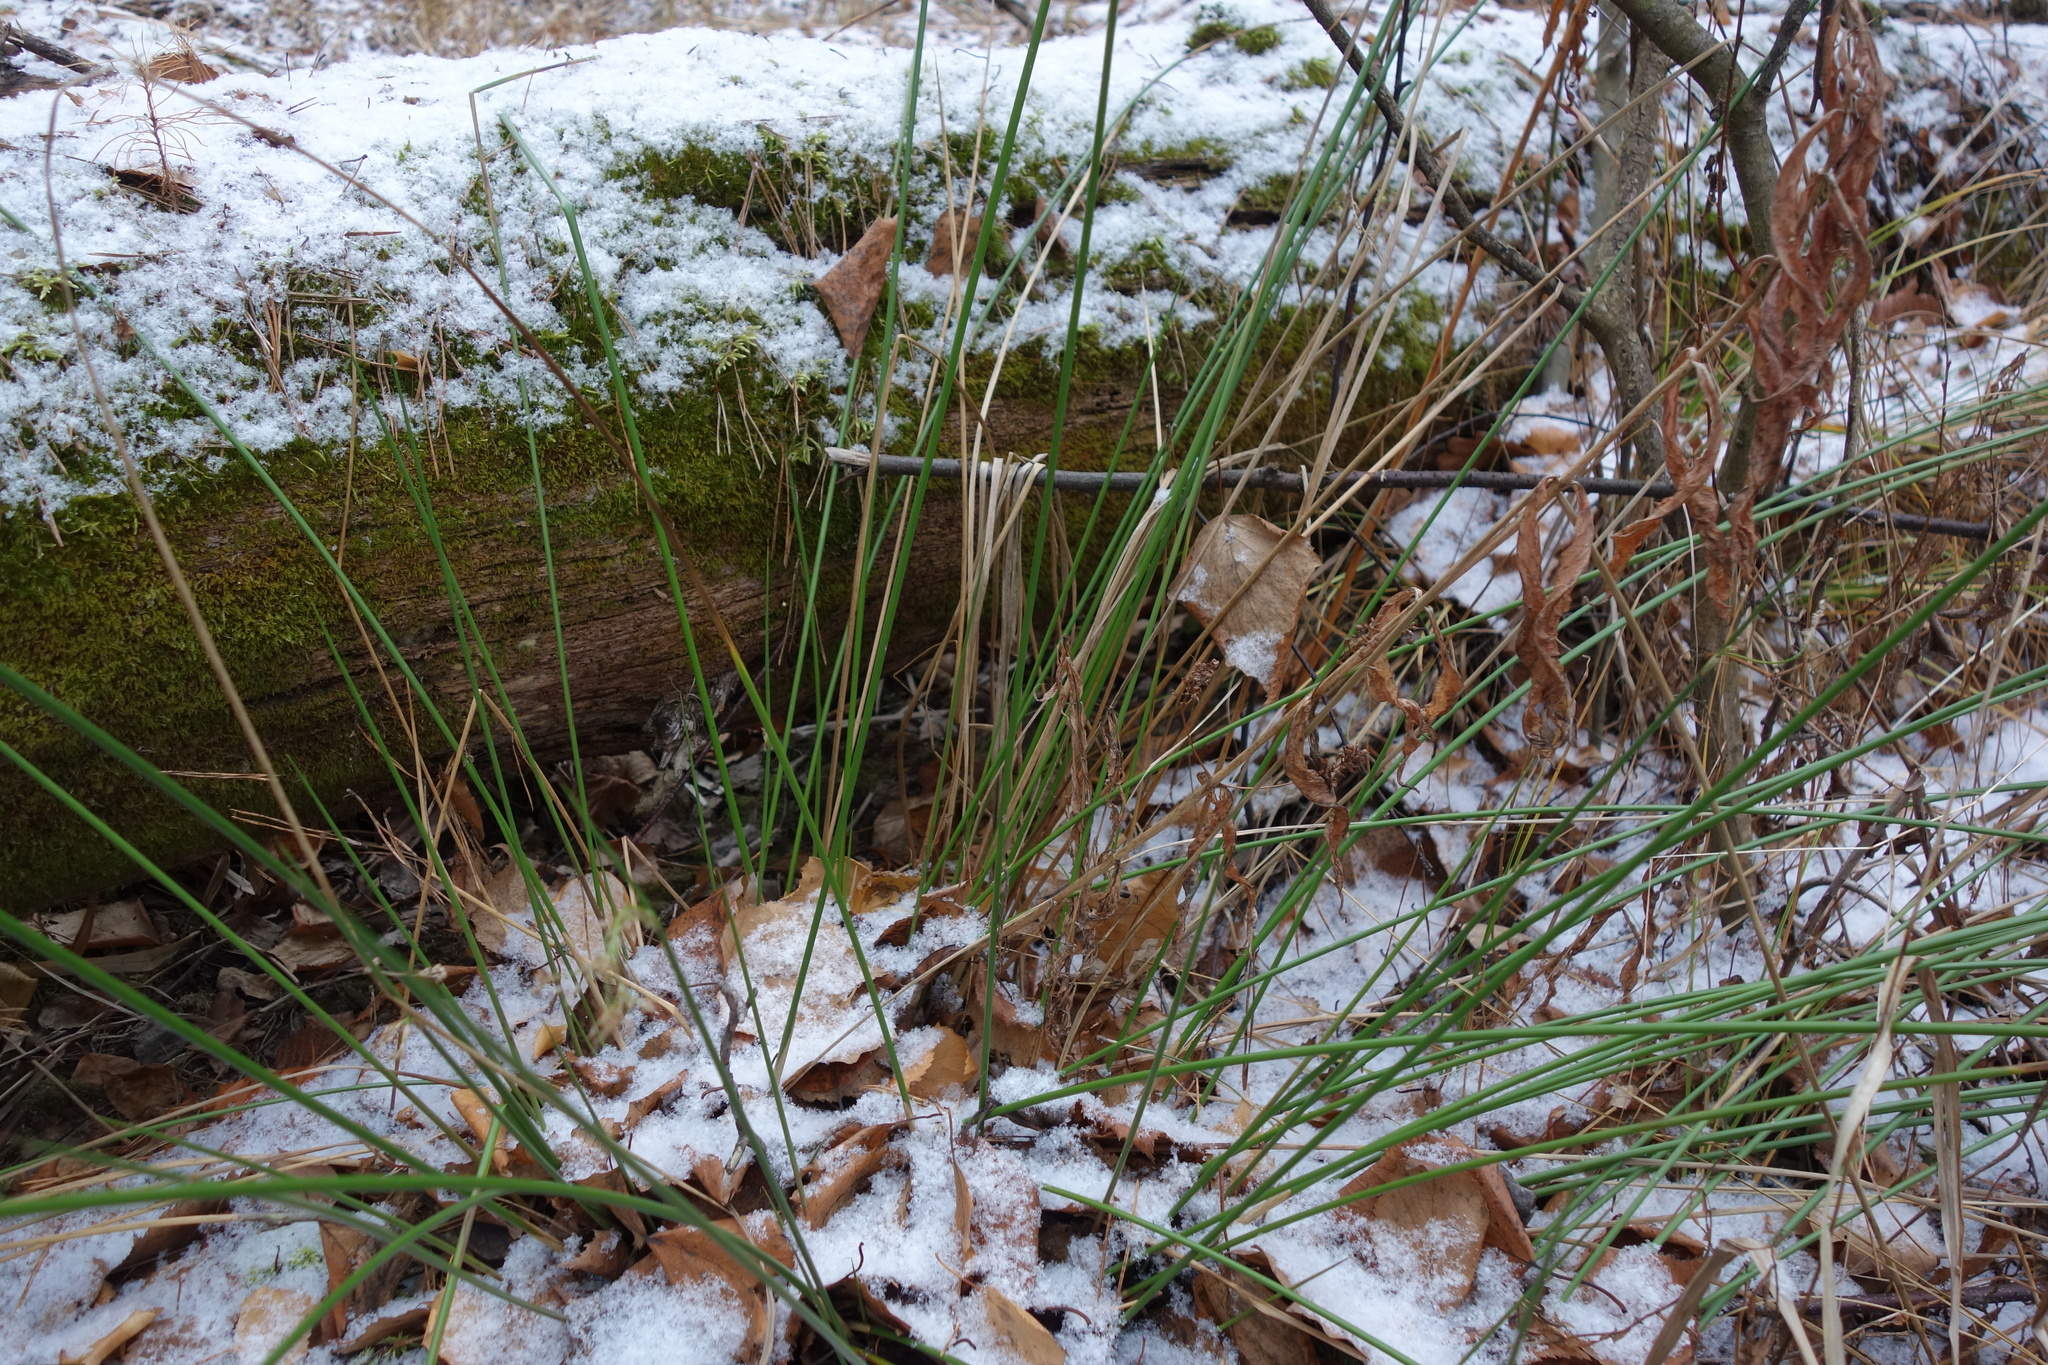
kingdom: Plantae
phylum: Tracheophyta
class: Liliopsida
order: Poales
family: Juncaceae
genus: Juncus
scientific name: Juncus effusus
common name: Soft rush
